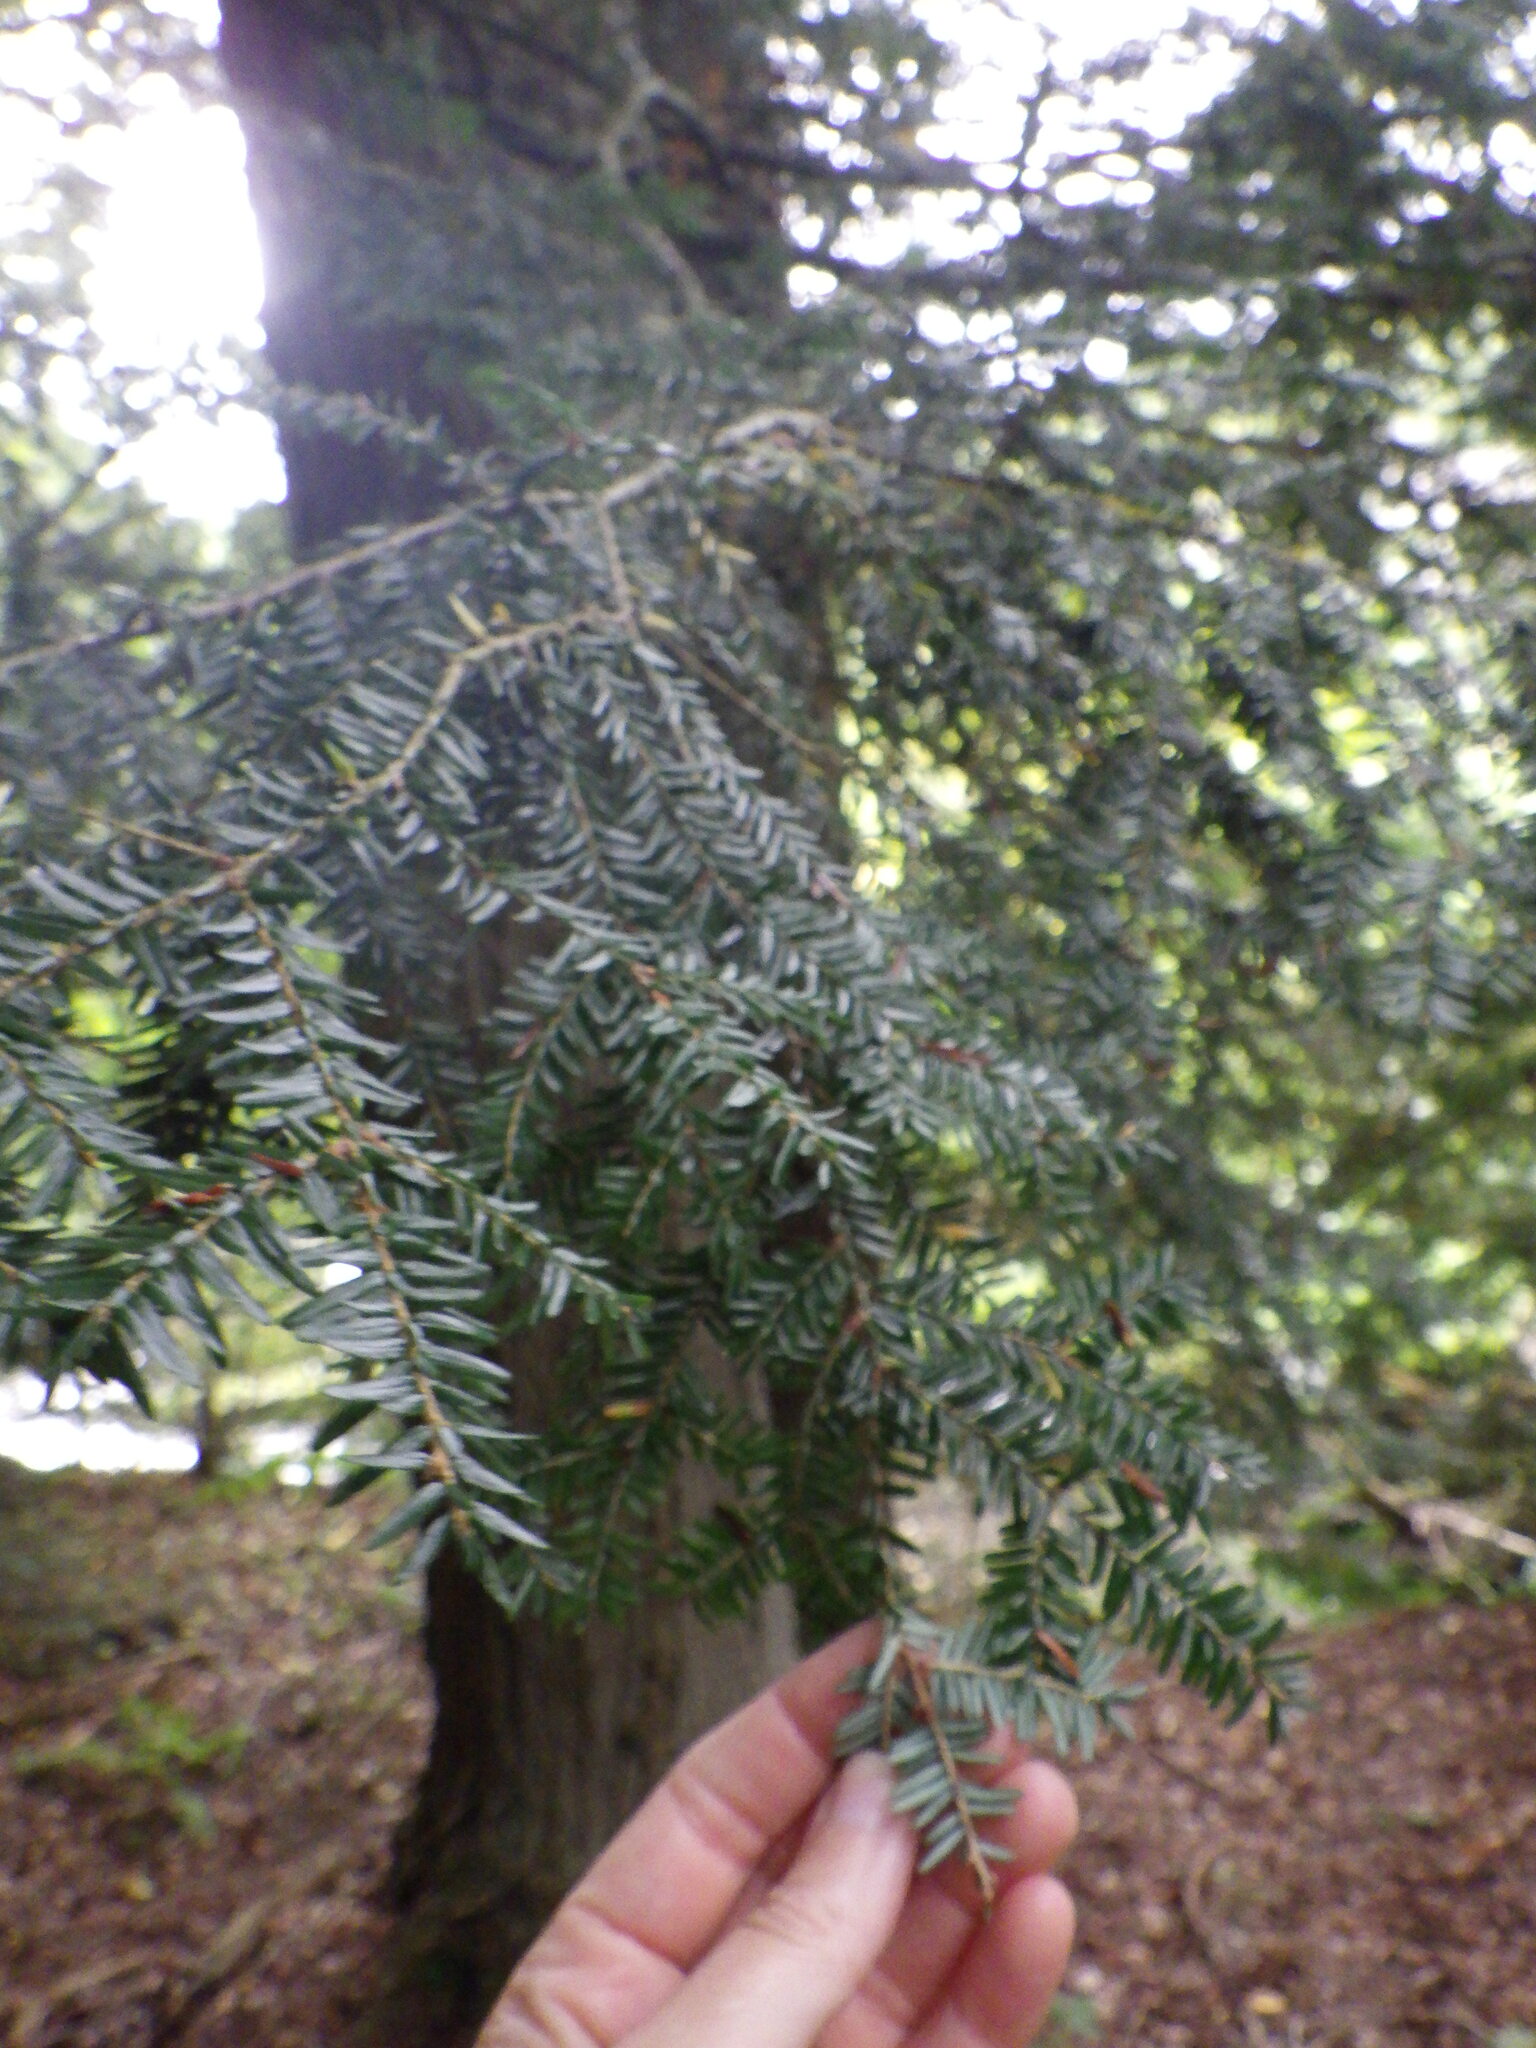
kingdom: Plantae
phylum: Tracheophyta
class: Pinopsida
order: Pinales
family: Pinaceae
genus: Tsuga
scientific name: Tsuga canadensis
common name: Eastern hemlock
